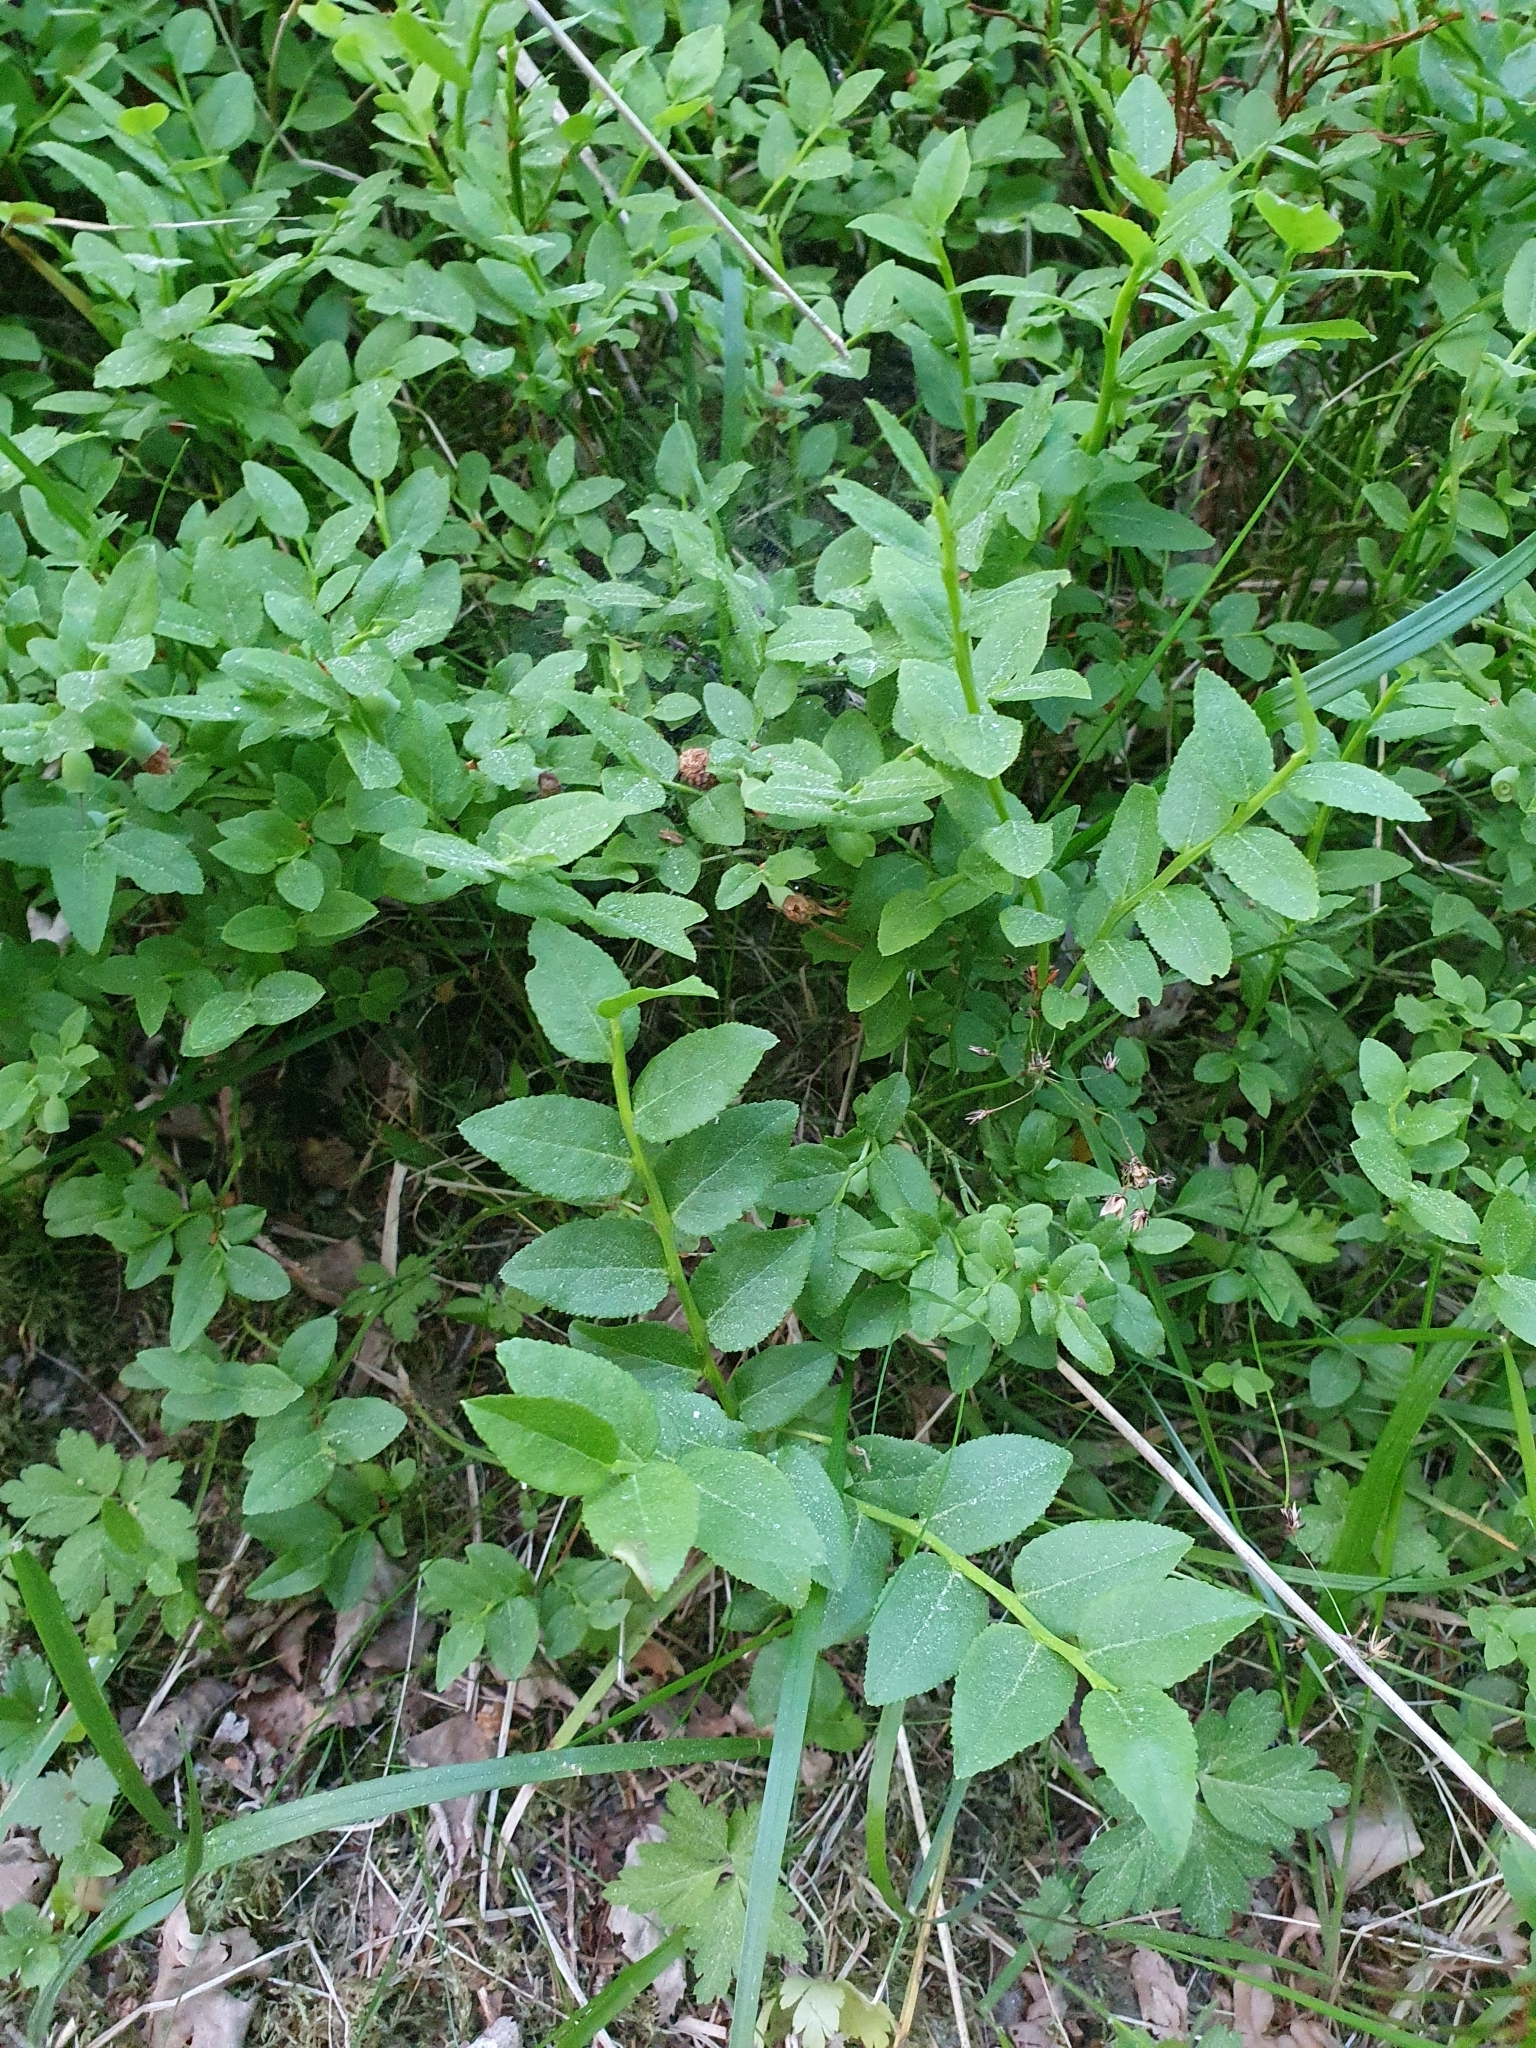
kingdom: Plantae
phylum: Tracheophyta
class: Magnoliopsida
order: Ericales
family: Ericaceae
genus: Vaccinium
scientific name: Vaccinium myrtillus
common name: Bilberry
